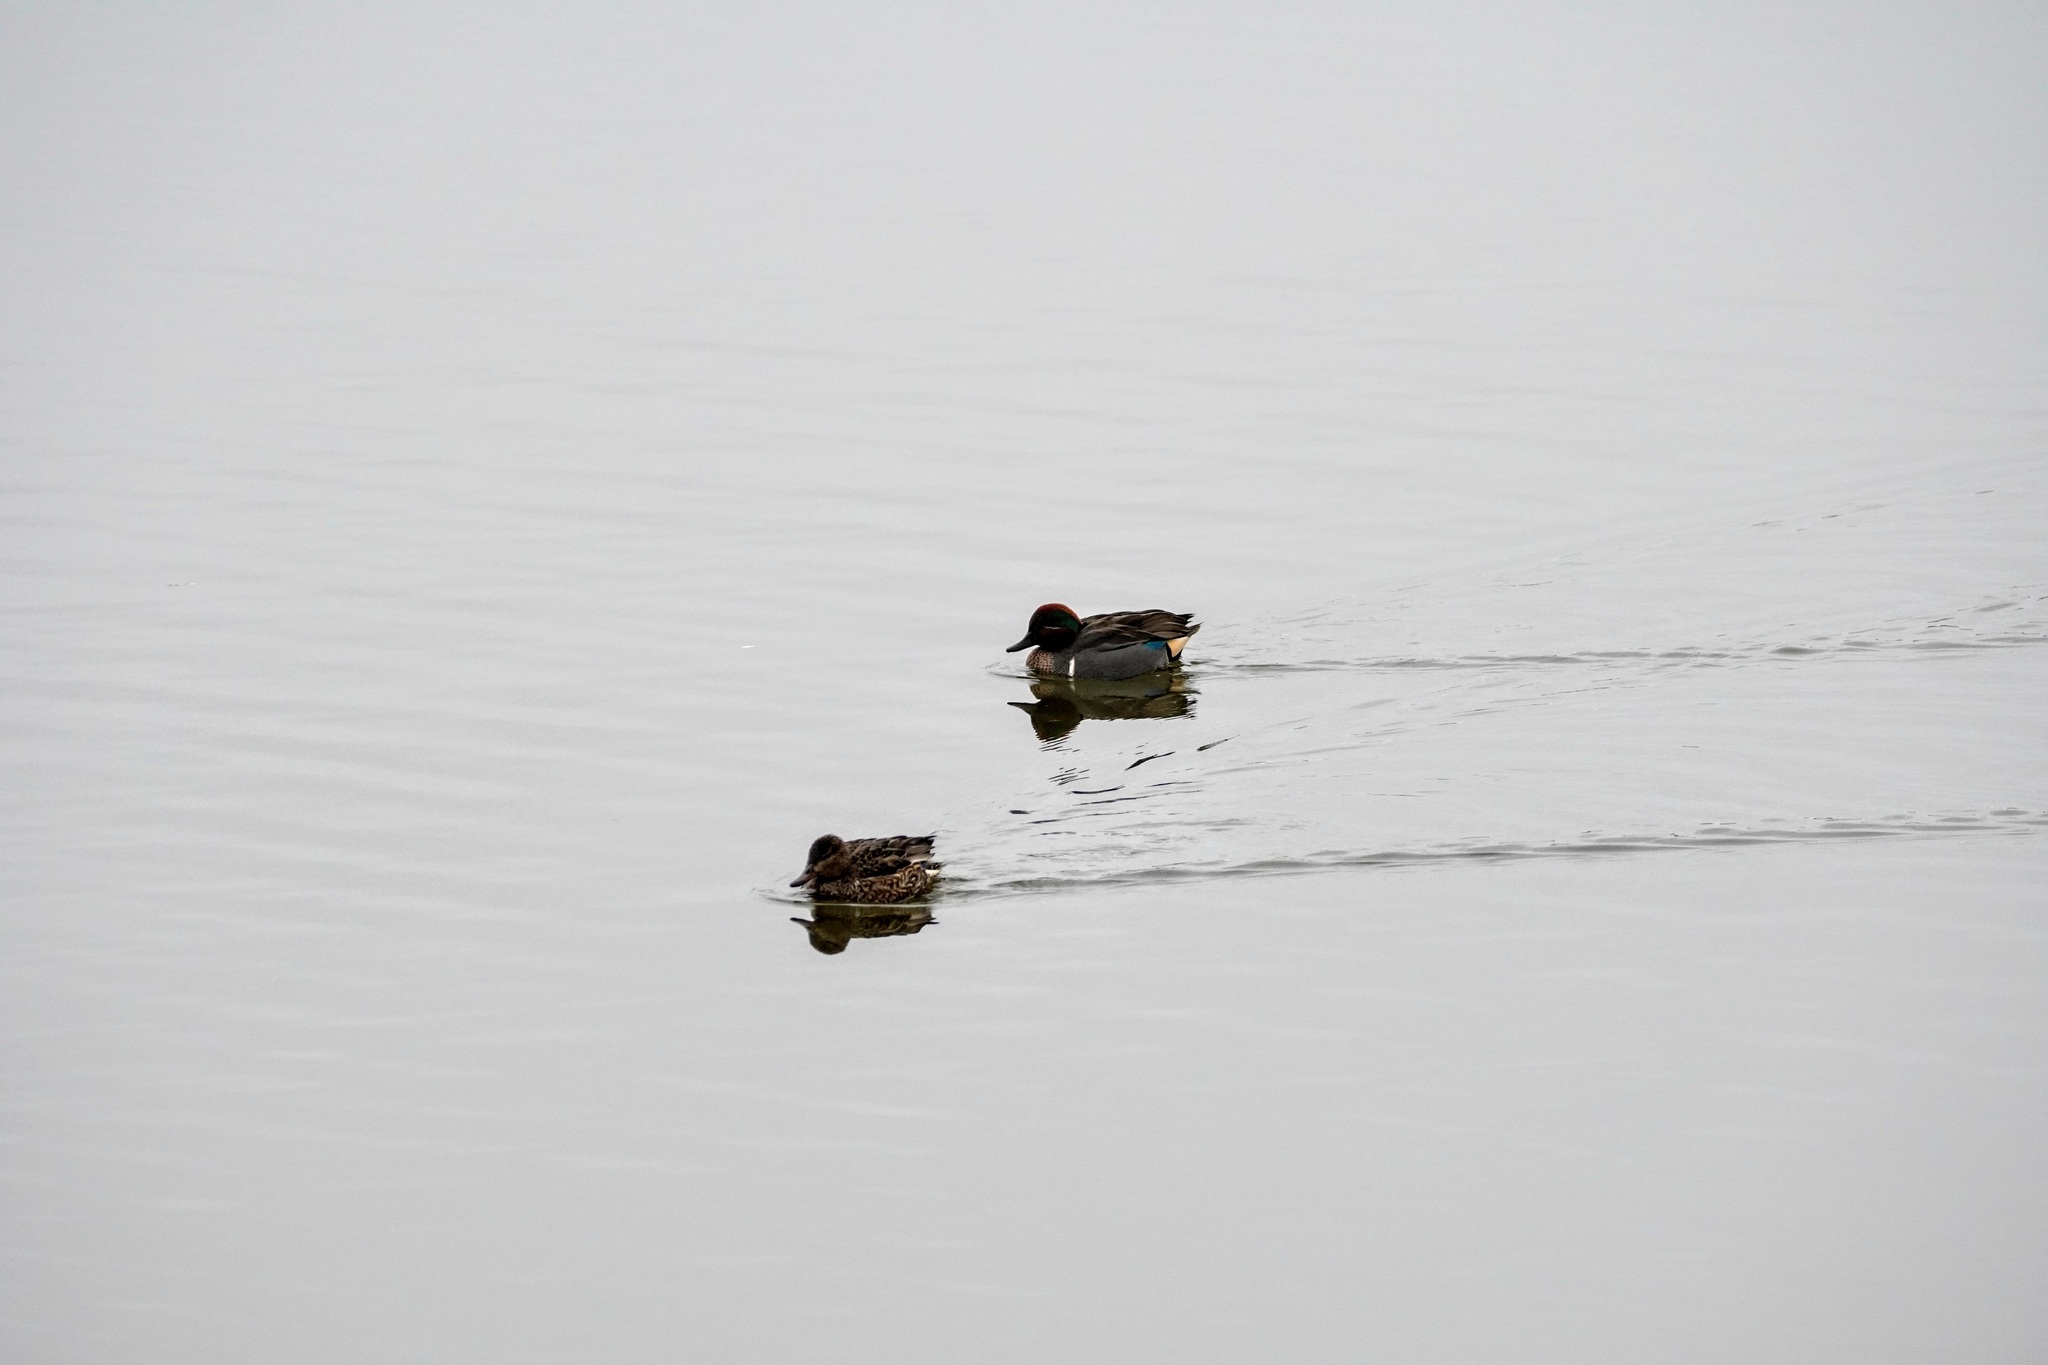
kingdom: Animalia
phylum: Chordata
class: Aves
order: Anseriformes
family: Anatidae
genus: Anas
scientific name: Anas crecca
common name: Eurasian teal
